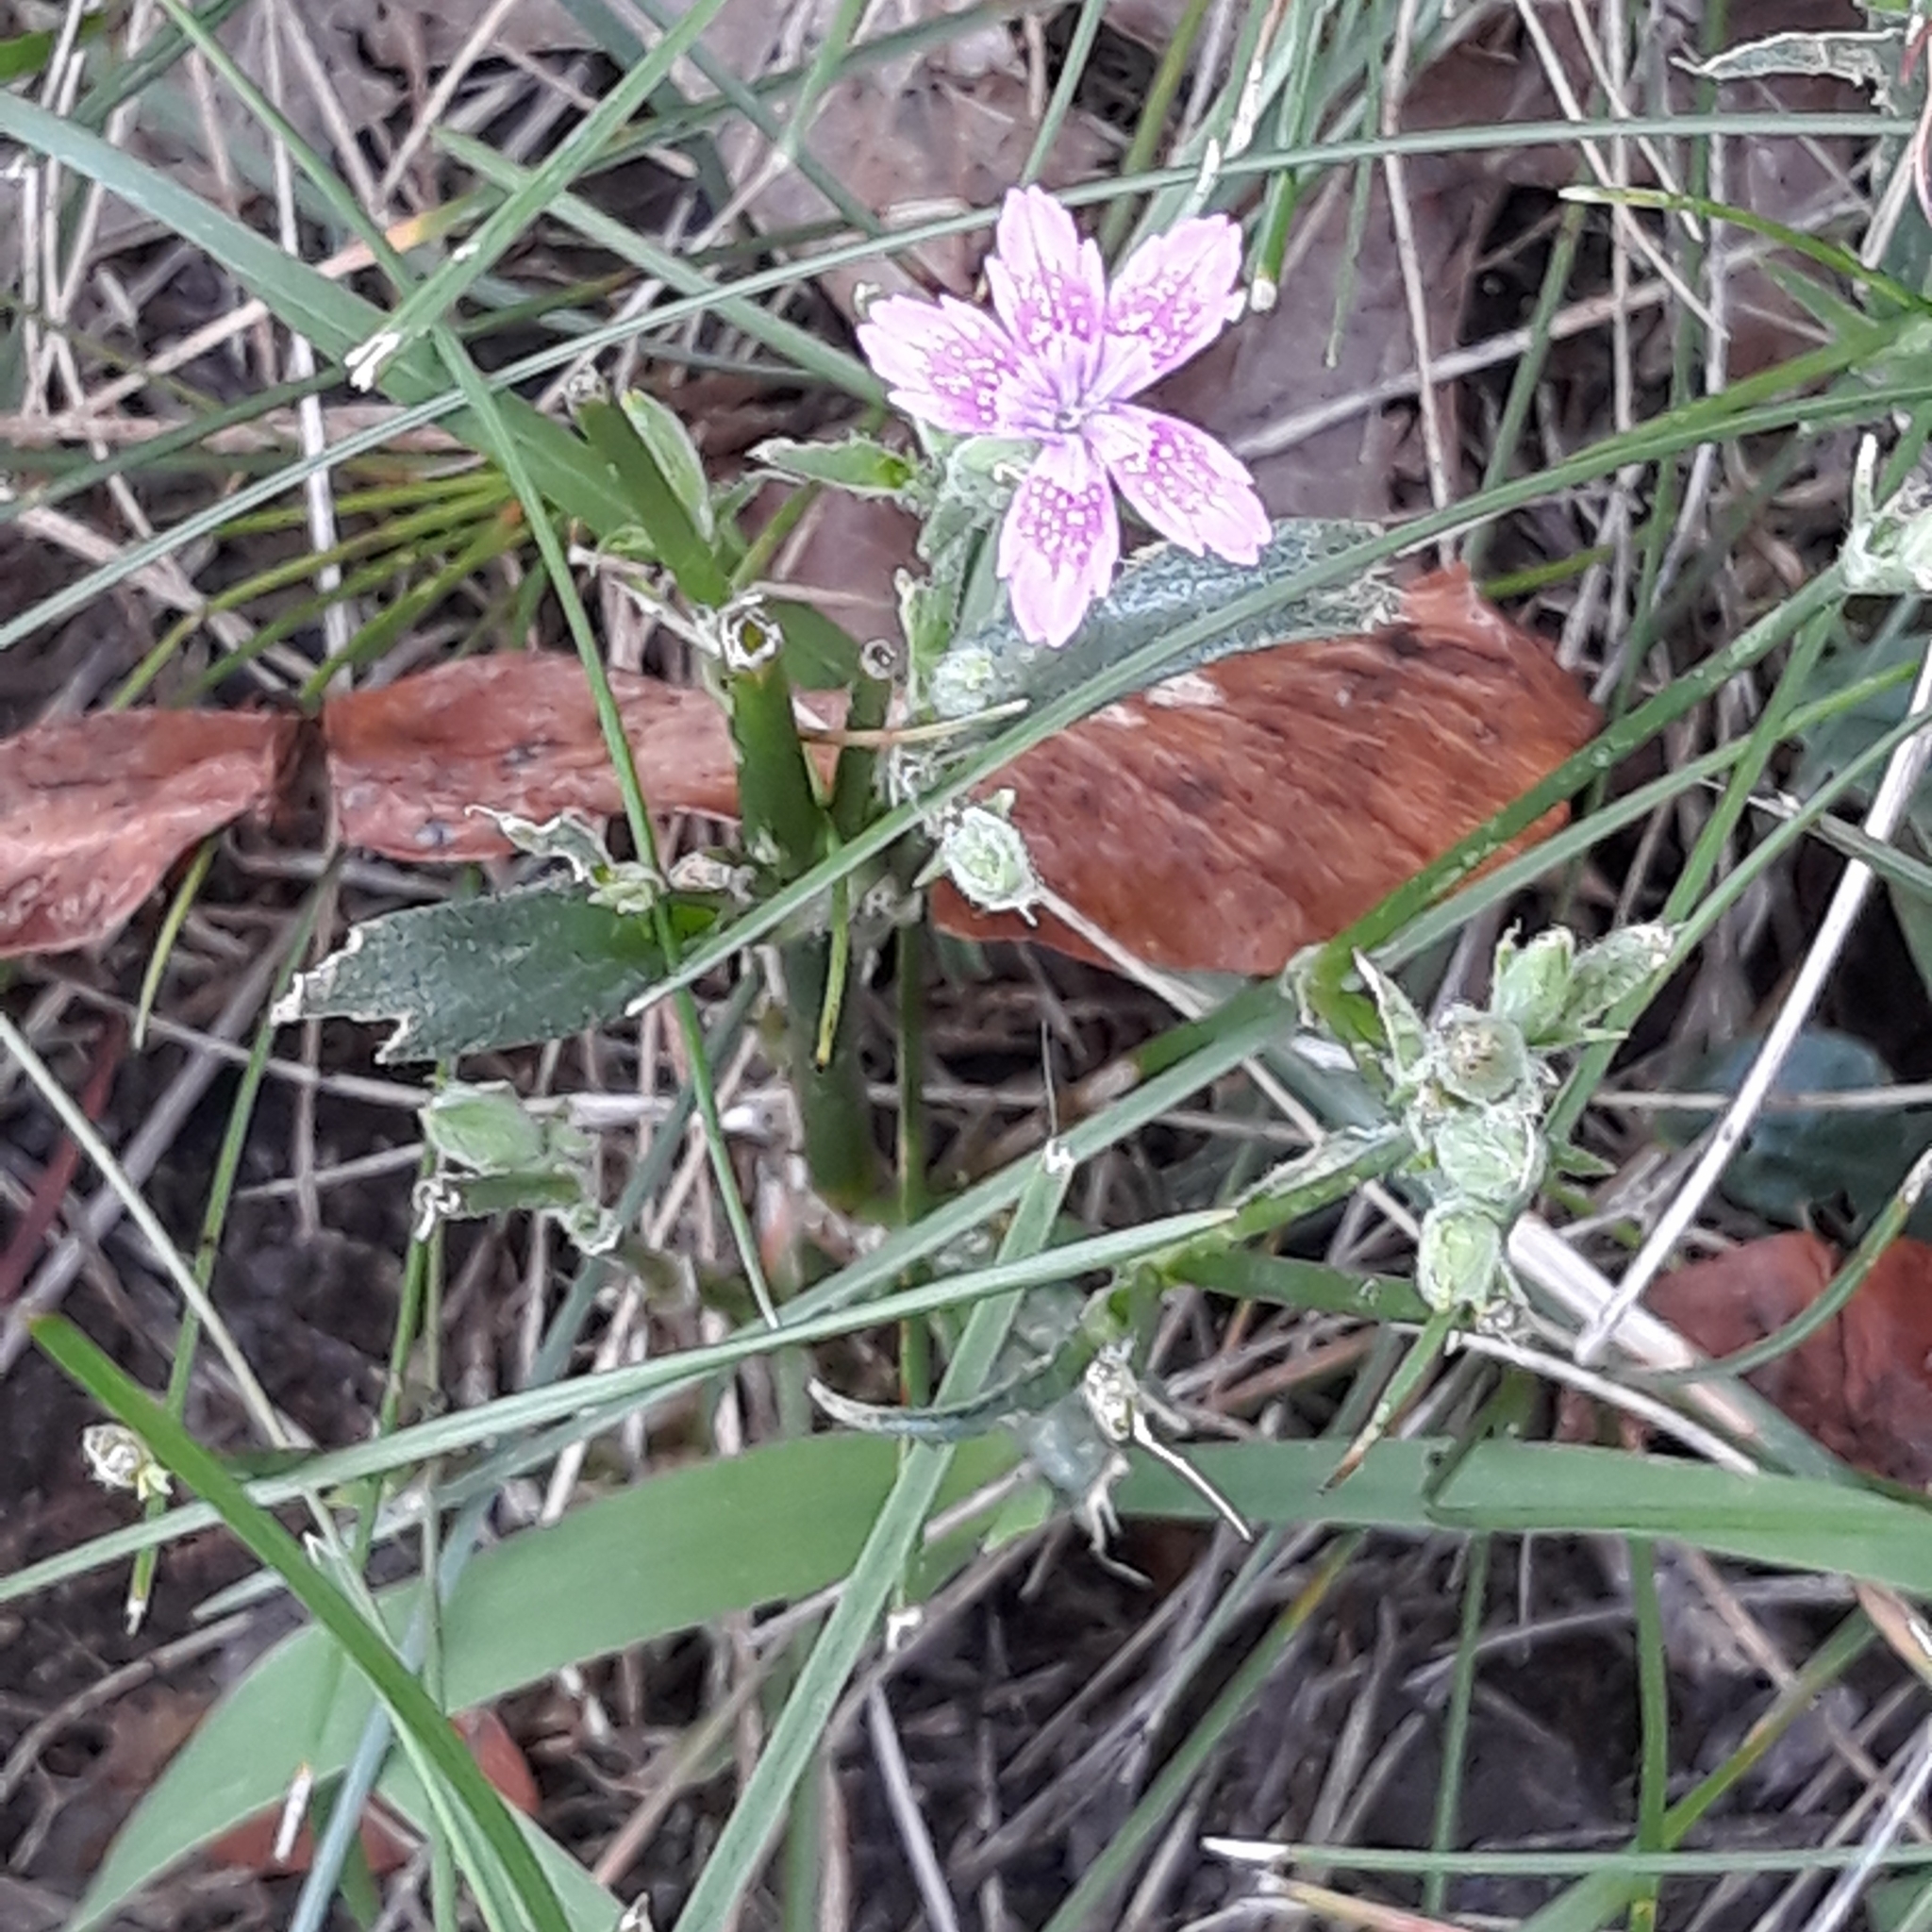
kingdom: Plantae
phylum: Tracheophyta
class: Magnoliopsida
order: Caryophyllales
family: Caryophyllaceae
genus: Dianthus
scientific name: Dianthus armeria
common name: Deptford pink
